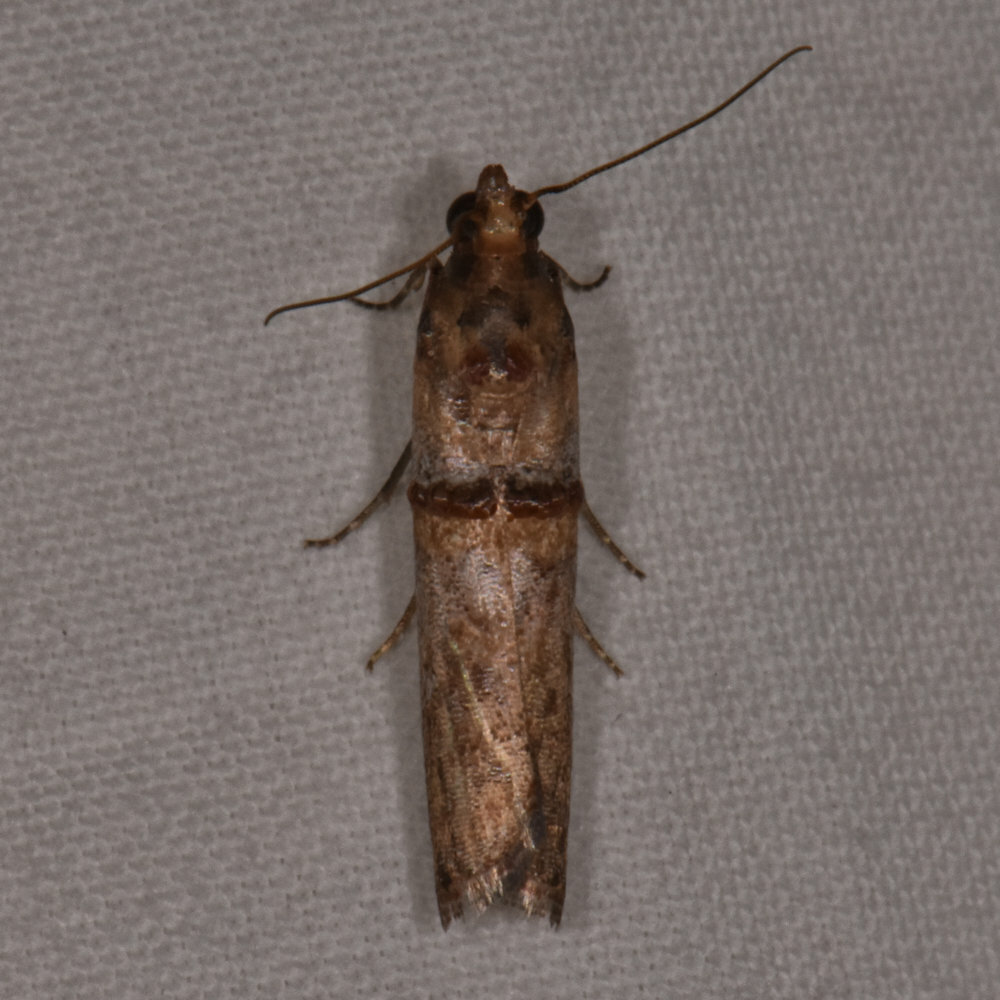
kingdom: Animalia
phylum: Arthropoda
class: Insecta
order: Lepidoptera
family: Pyralidae
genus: Hypargyria
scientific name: Hypargyria metalliferella
